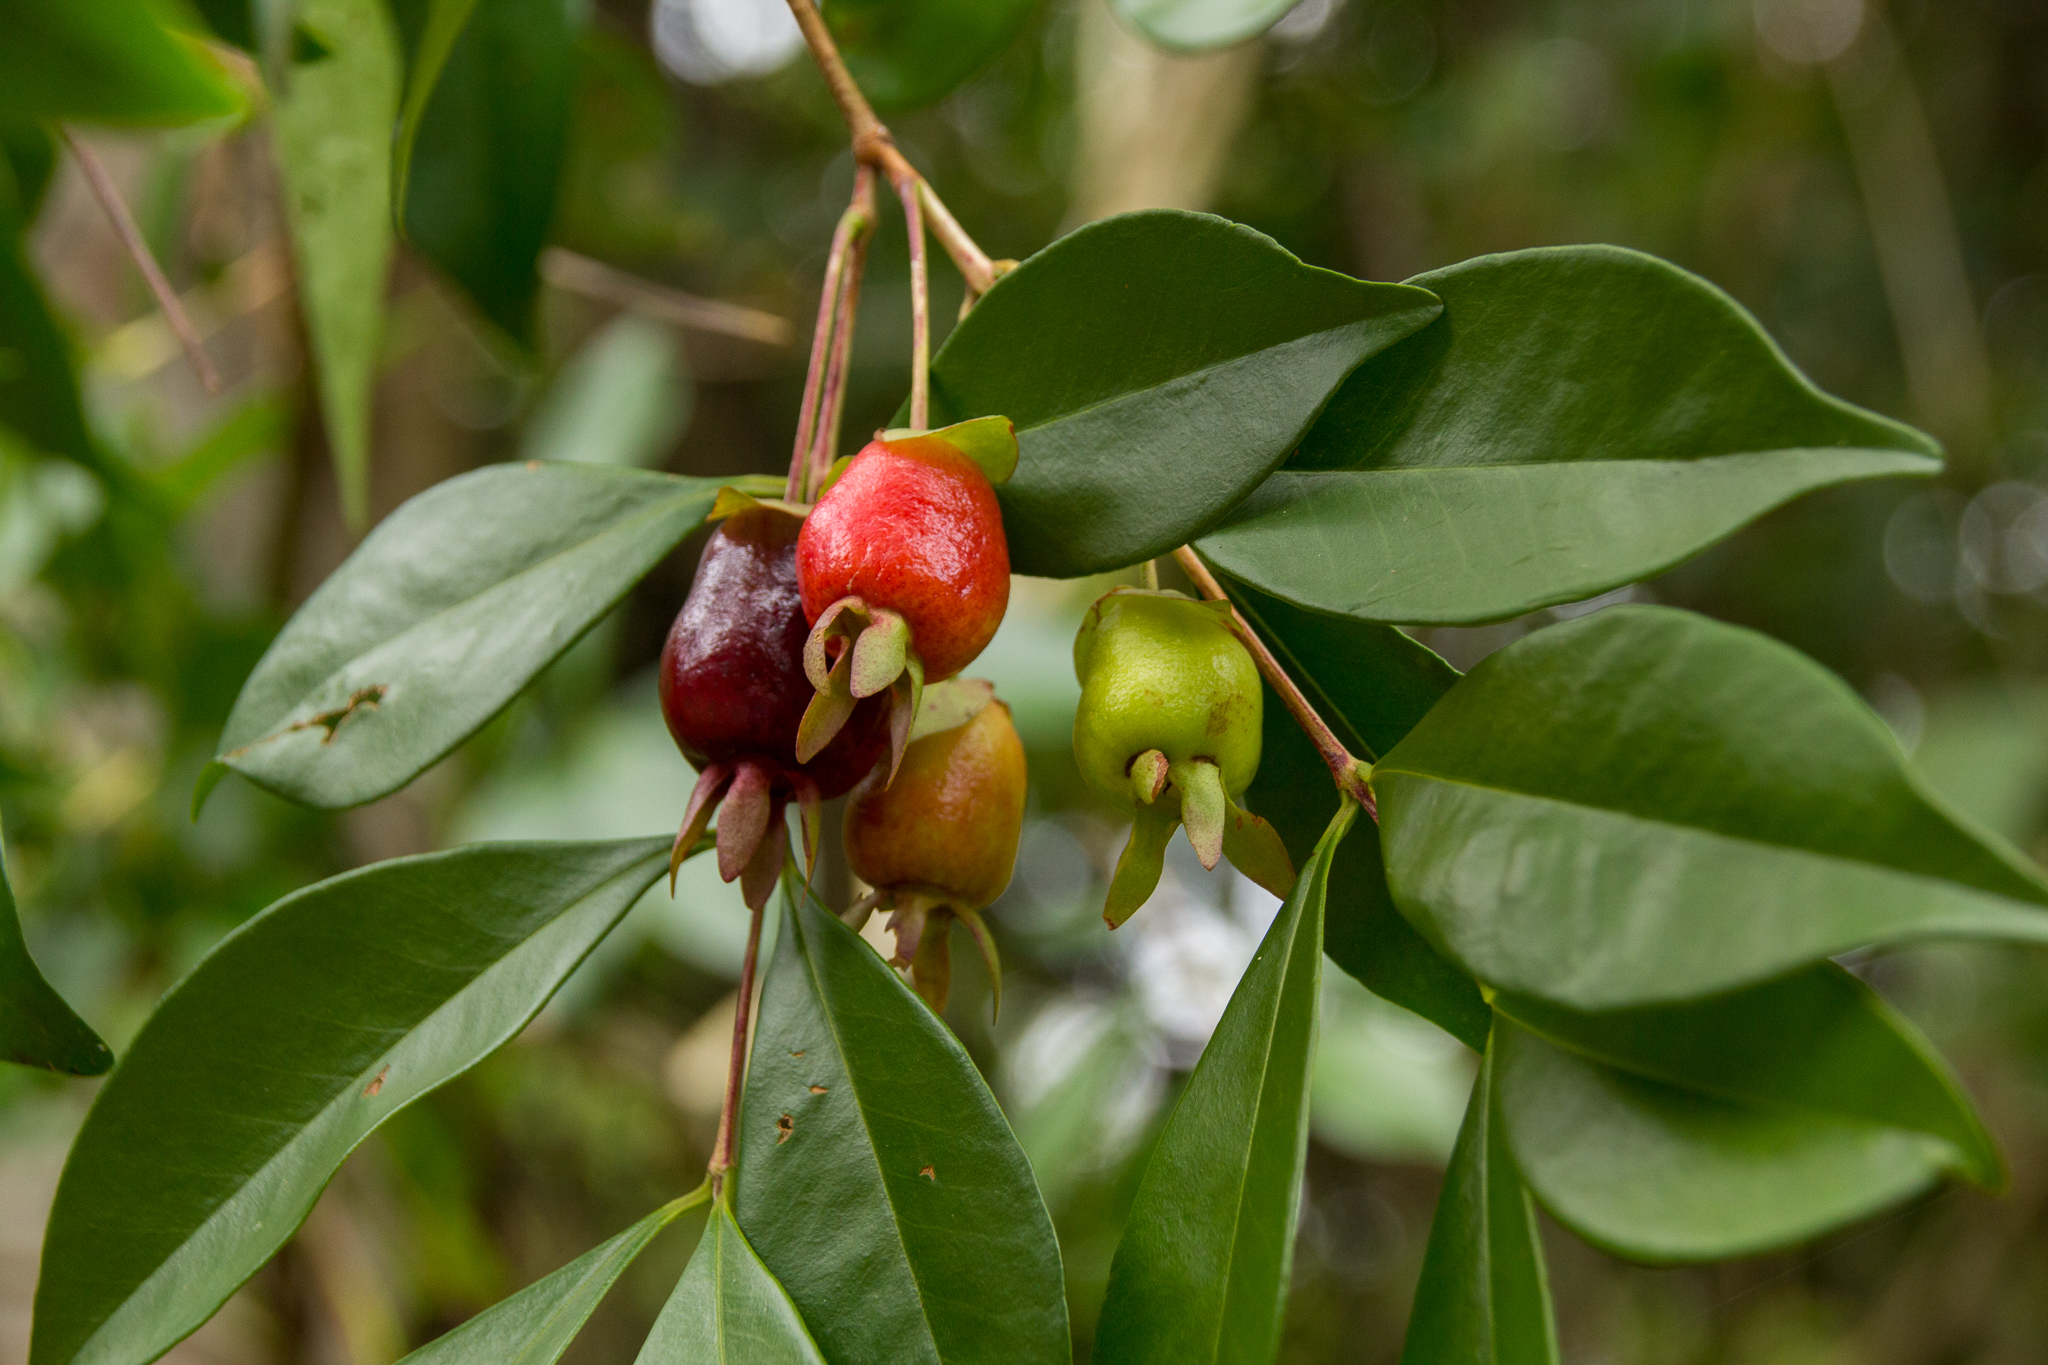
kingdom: Plantae
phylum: Tracheophyta
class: Magnoliopsida
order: Myrtales
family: Myrtaceae
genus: Eugenia
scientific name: Eugenia involucrata
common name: Cherry-of-the-rio grande
